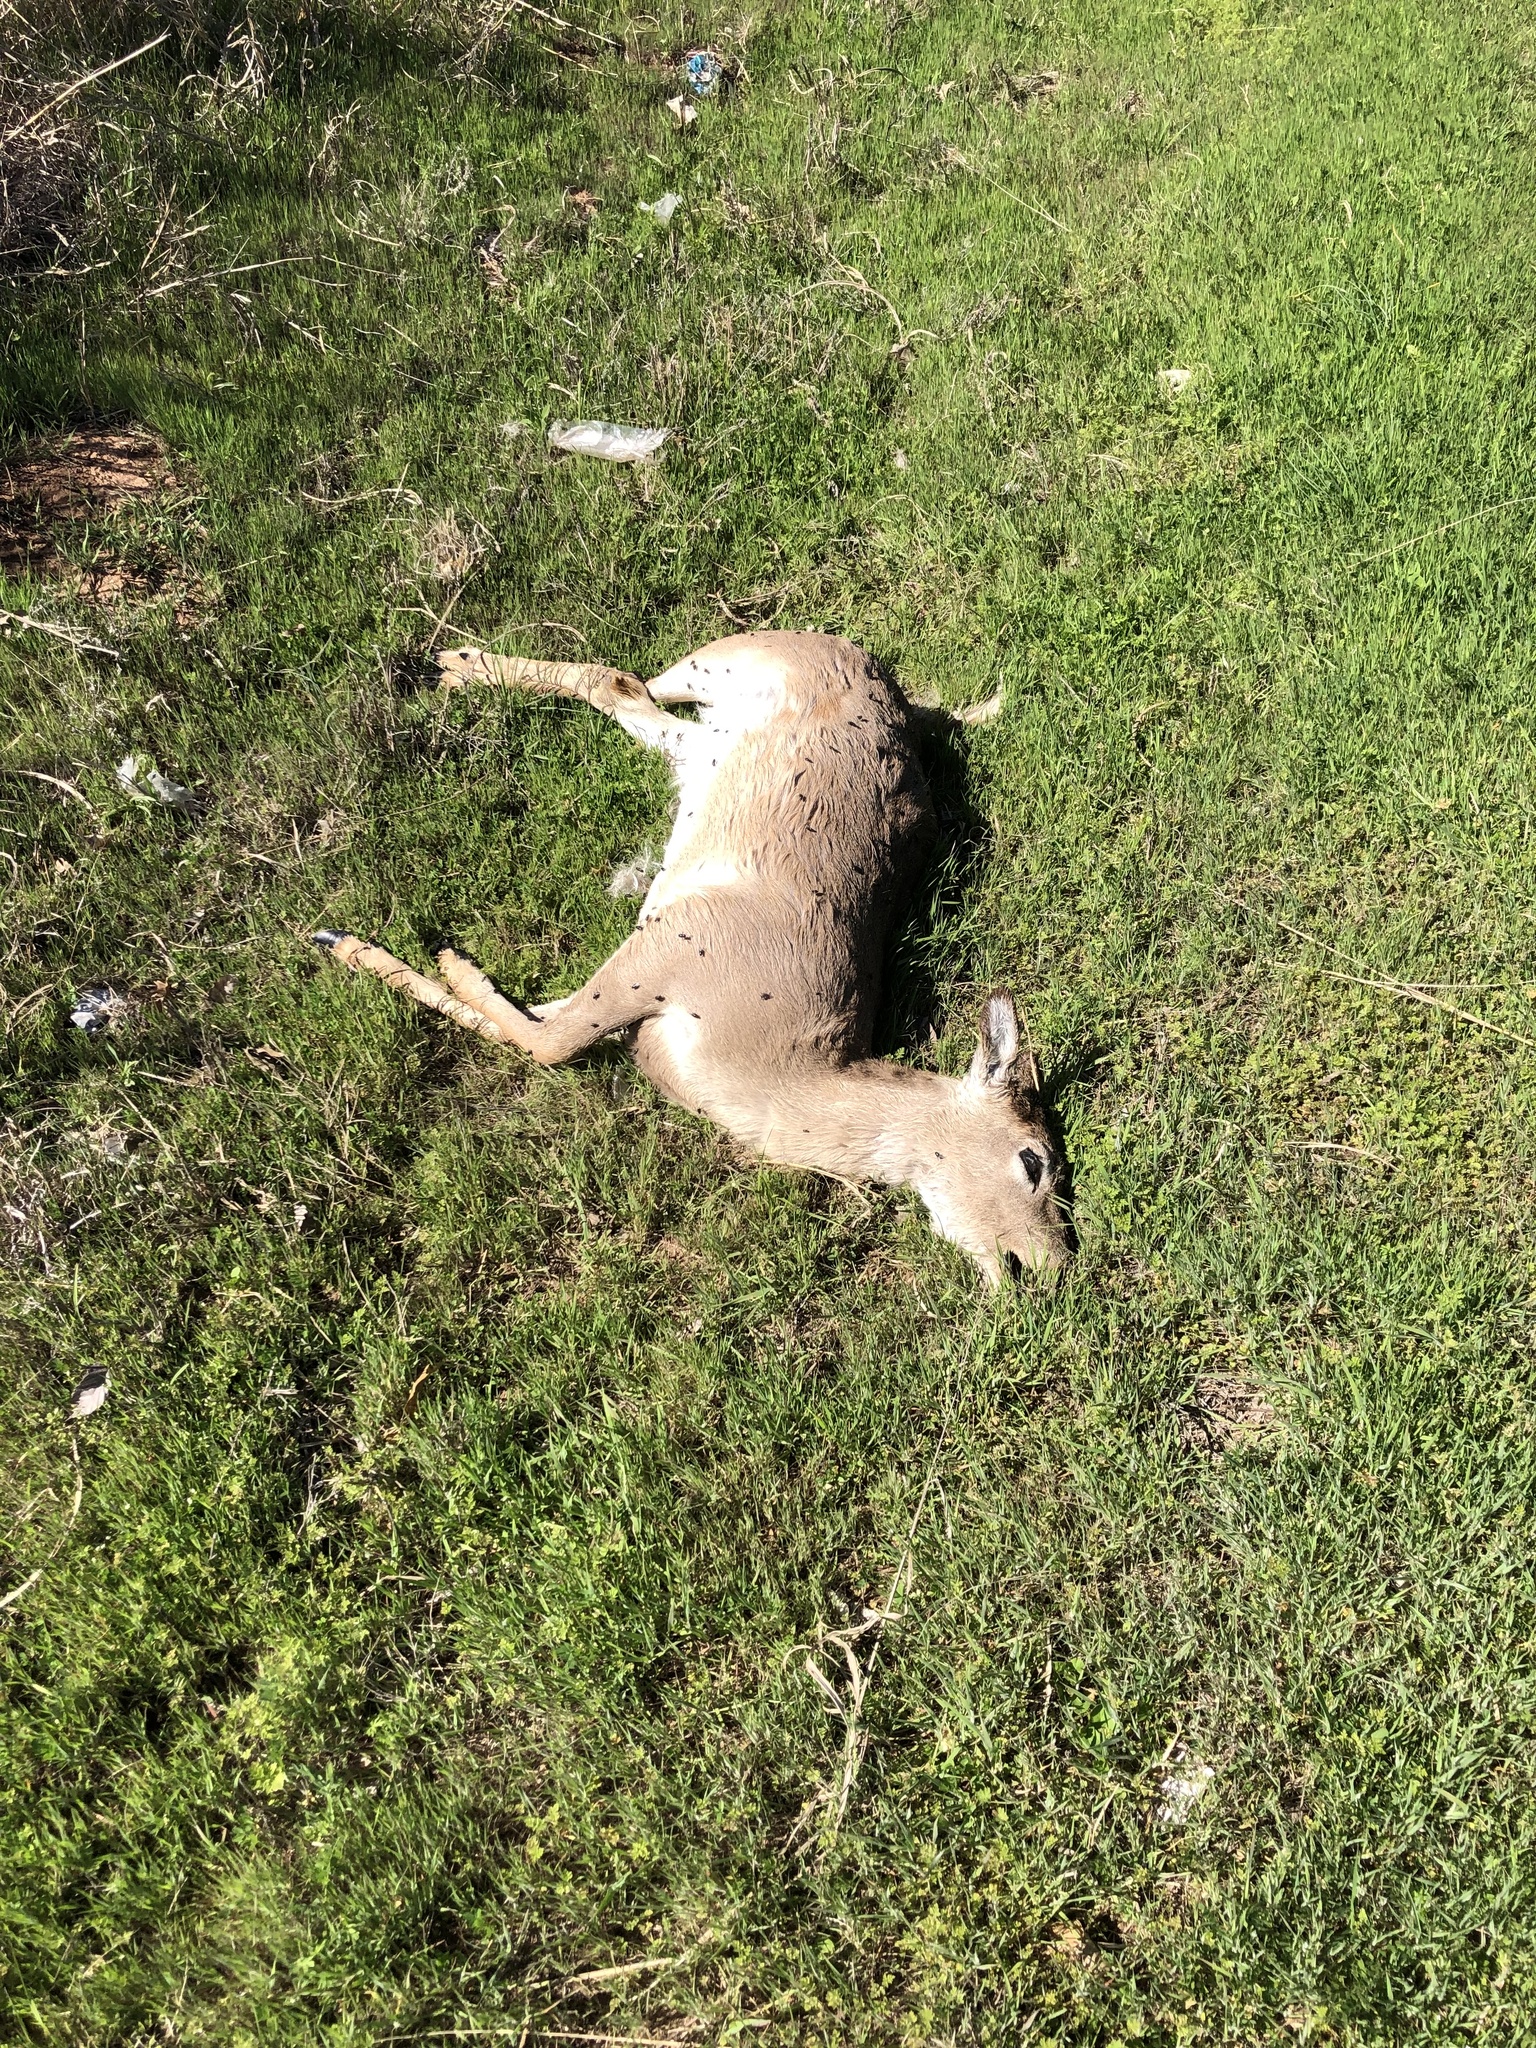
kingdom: Animalia
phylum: Chordata
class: Mammalia
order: Artiodactyla
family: Cervidae
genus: Odocoileus
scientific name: Odocoileus virginianus
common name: White-tailed deer
